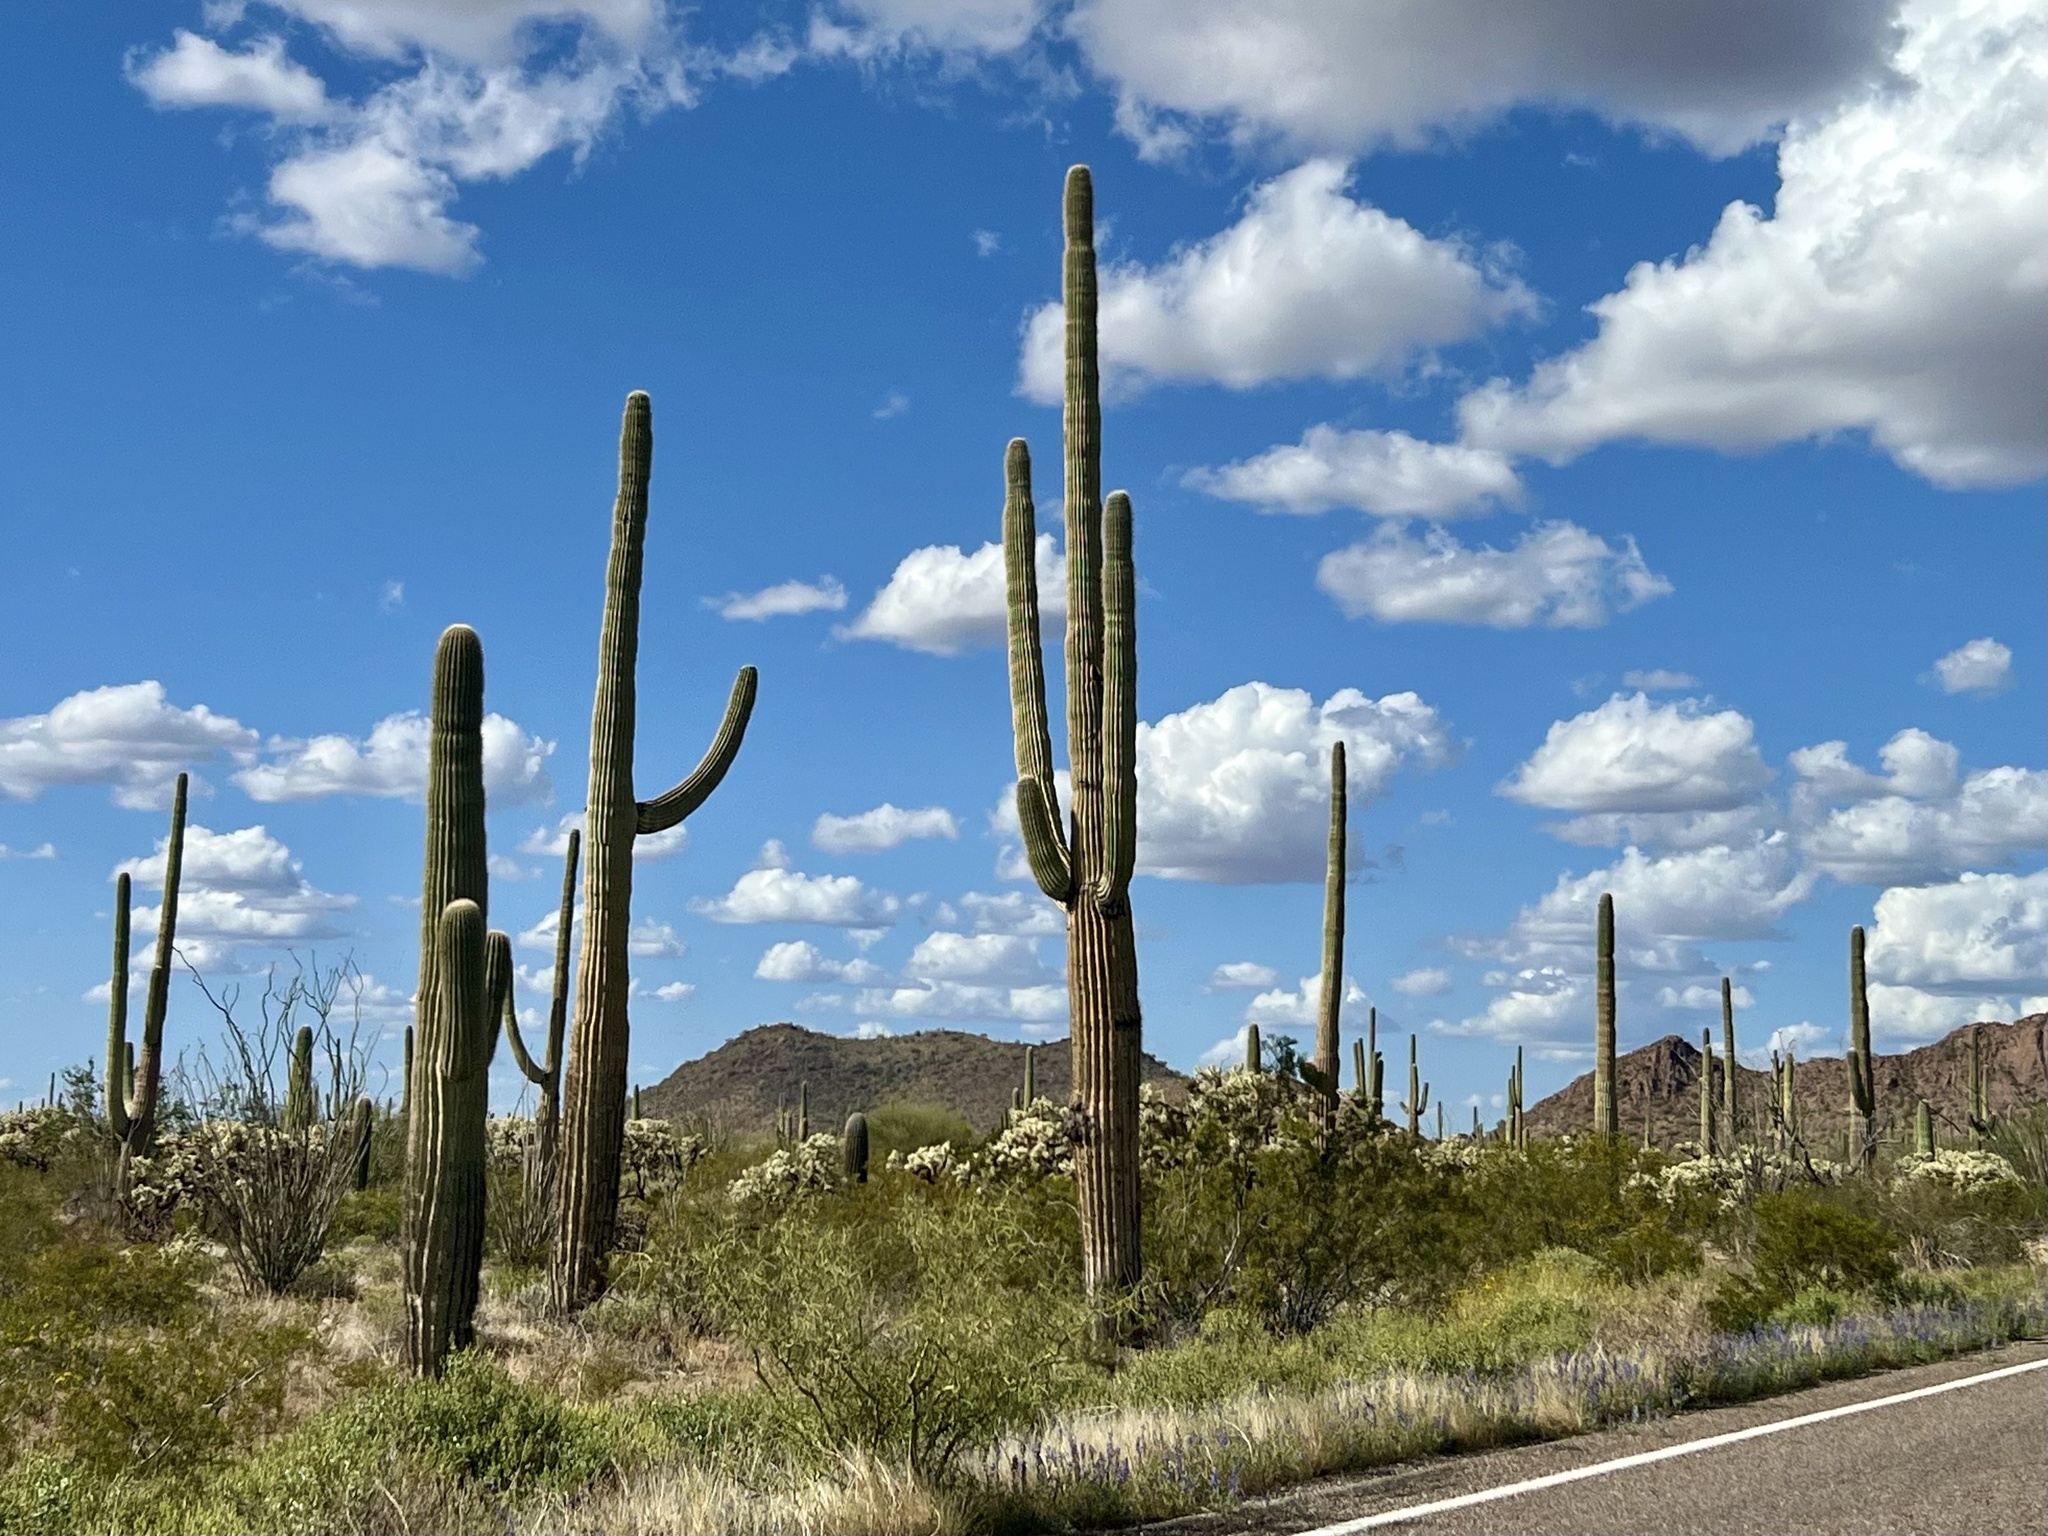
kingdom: Plantae
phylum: Tracheophyta
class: Magnoliopsida
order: Caryophyllales
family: Cactaceae
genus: Carnegiea
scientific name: Carnegiea gigantea
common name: Saguaro
